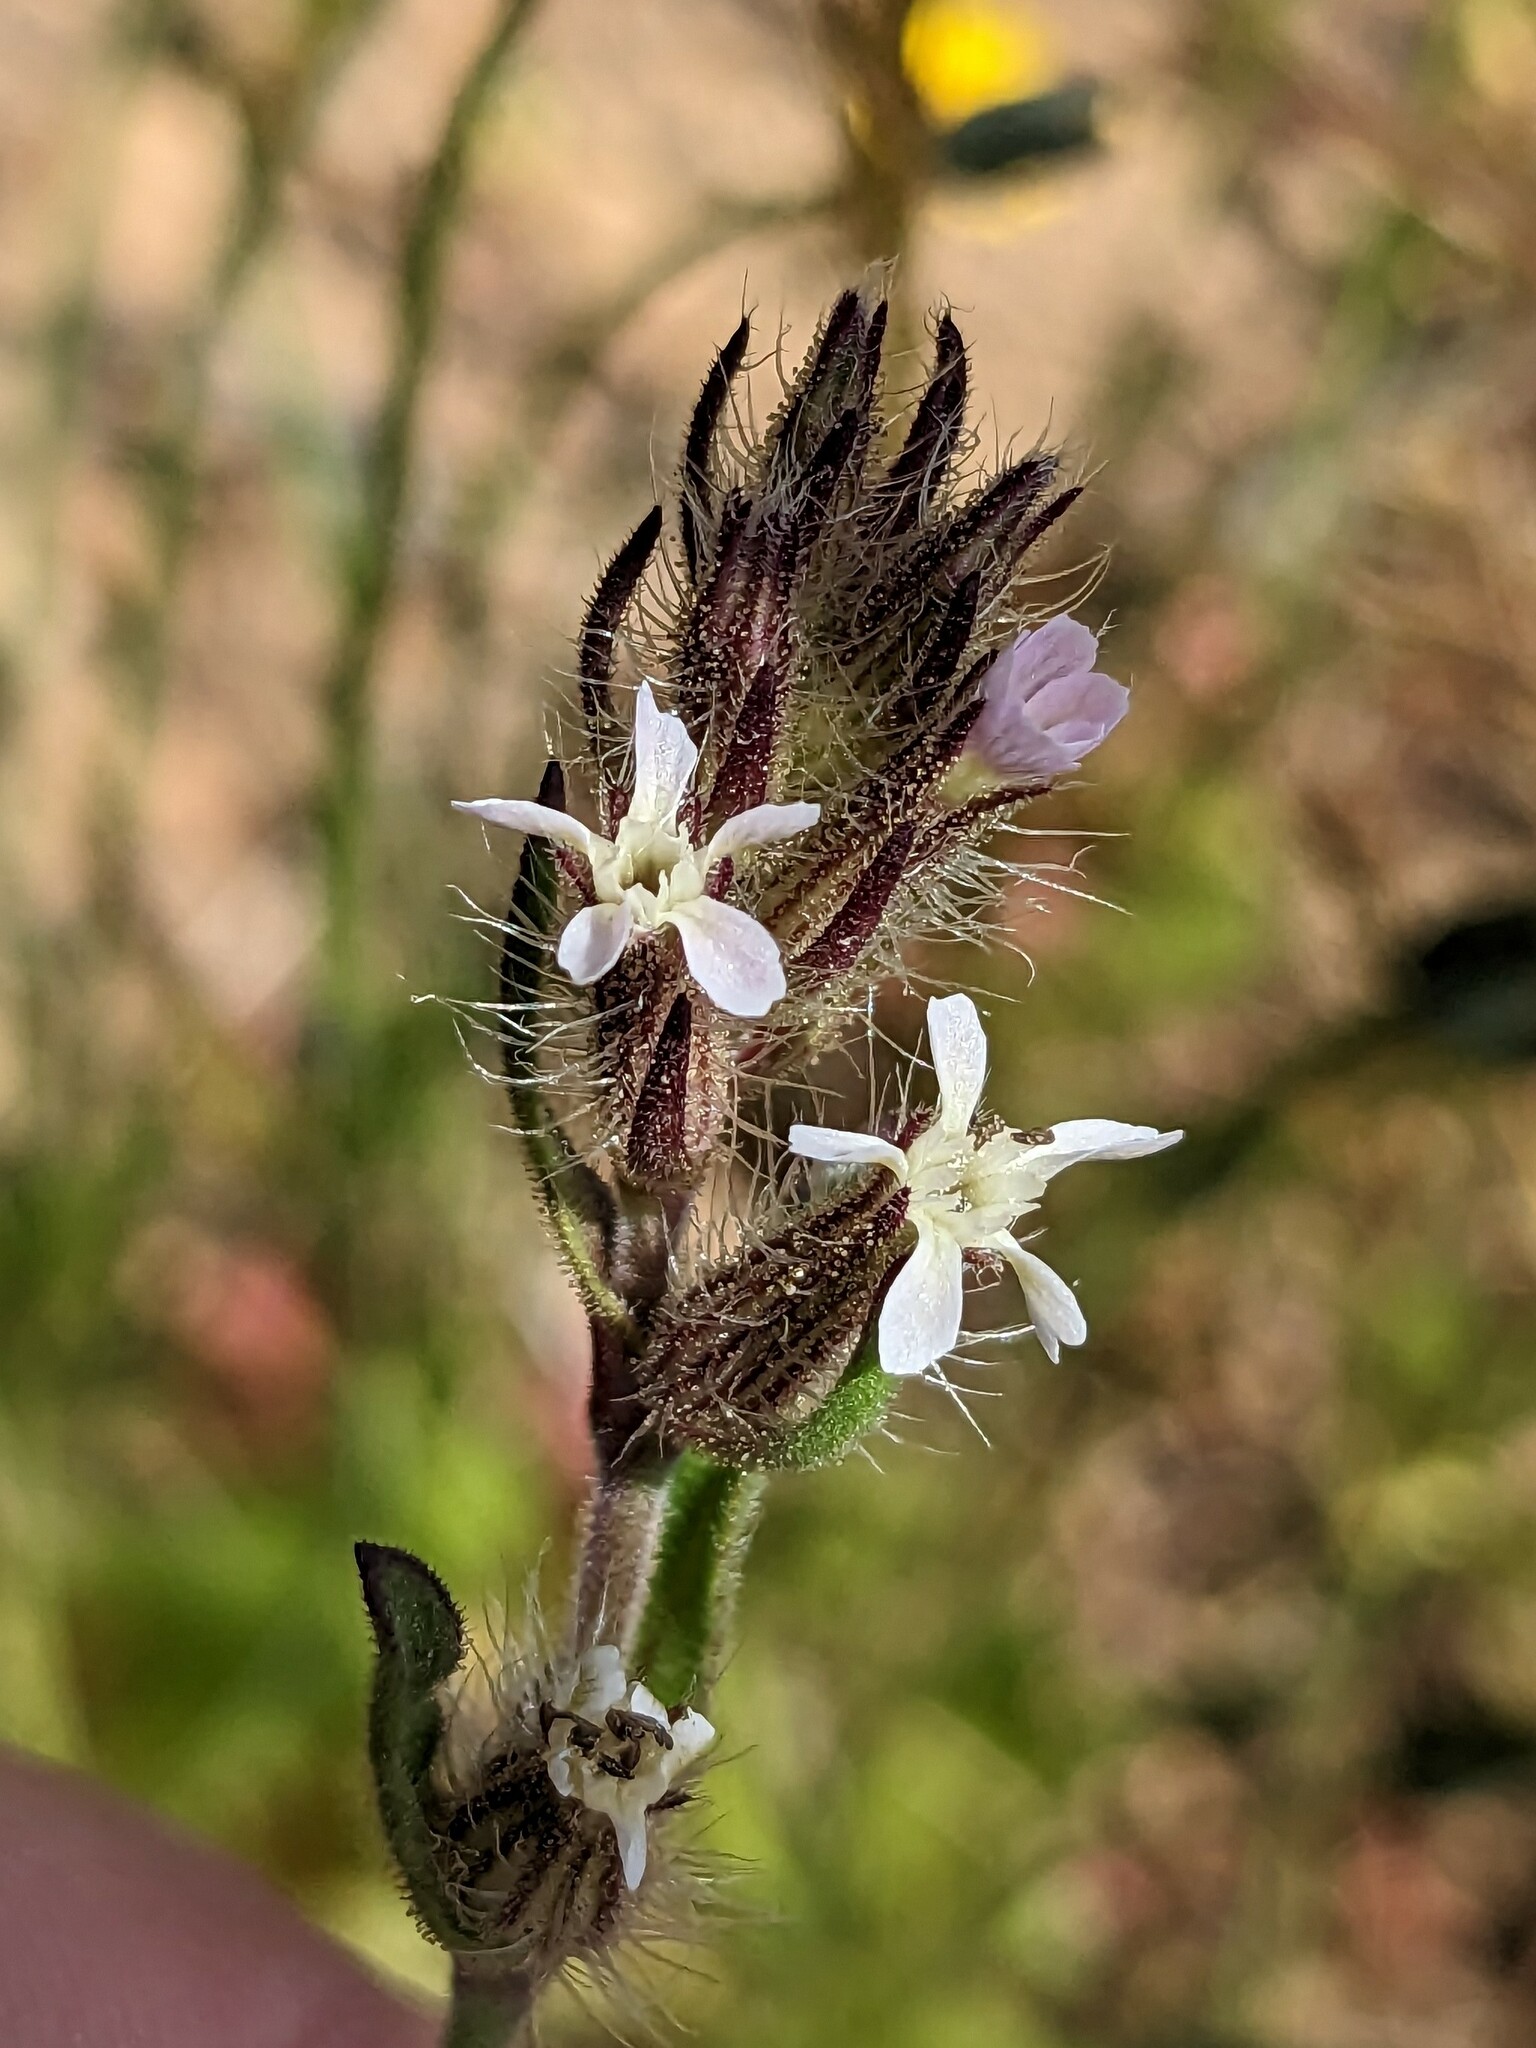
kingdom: Plantae
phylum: Tracheophyta
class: Magnoliopsida
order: Caryophyllales
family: Caryophyllaceae
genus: Silene
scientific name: Silene gallica
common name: Small-flowered catchfly
